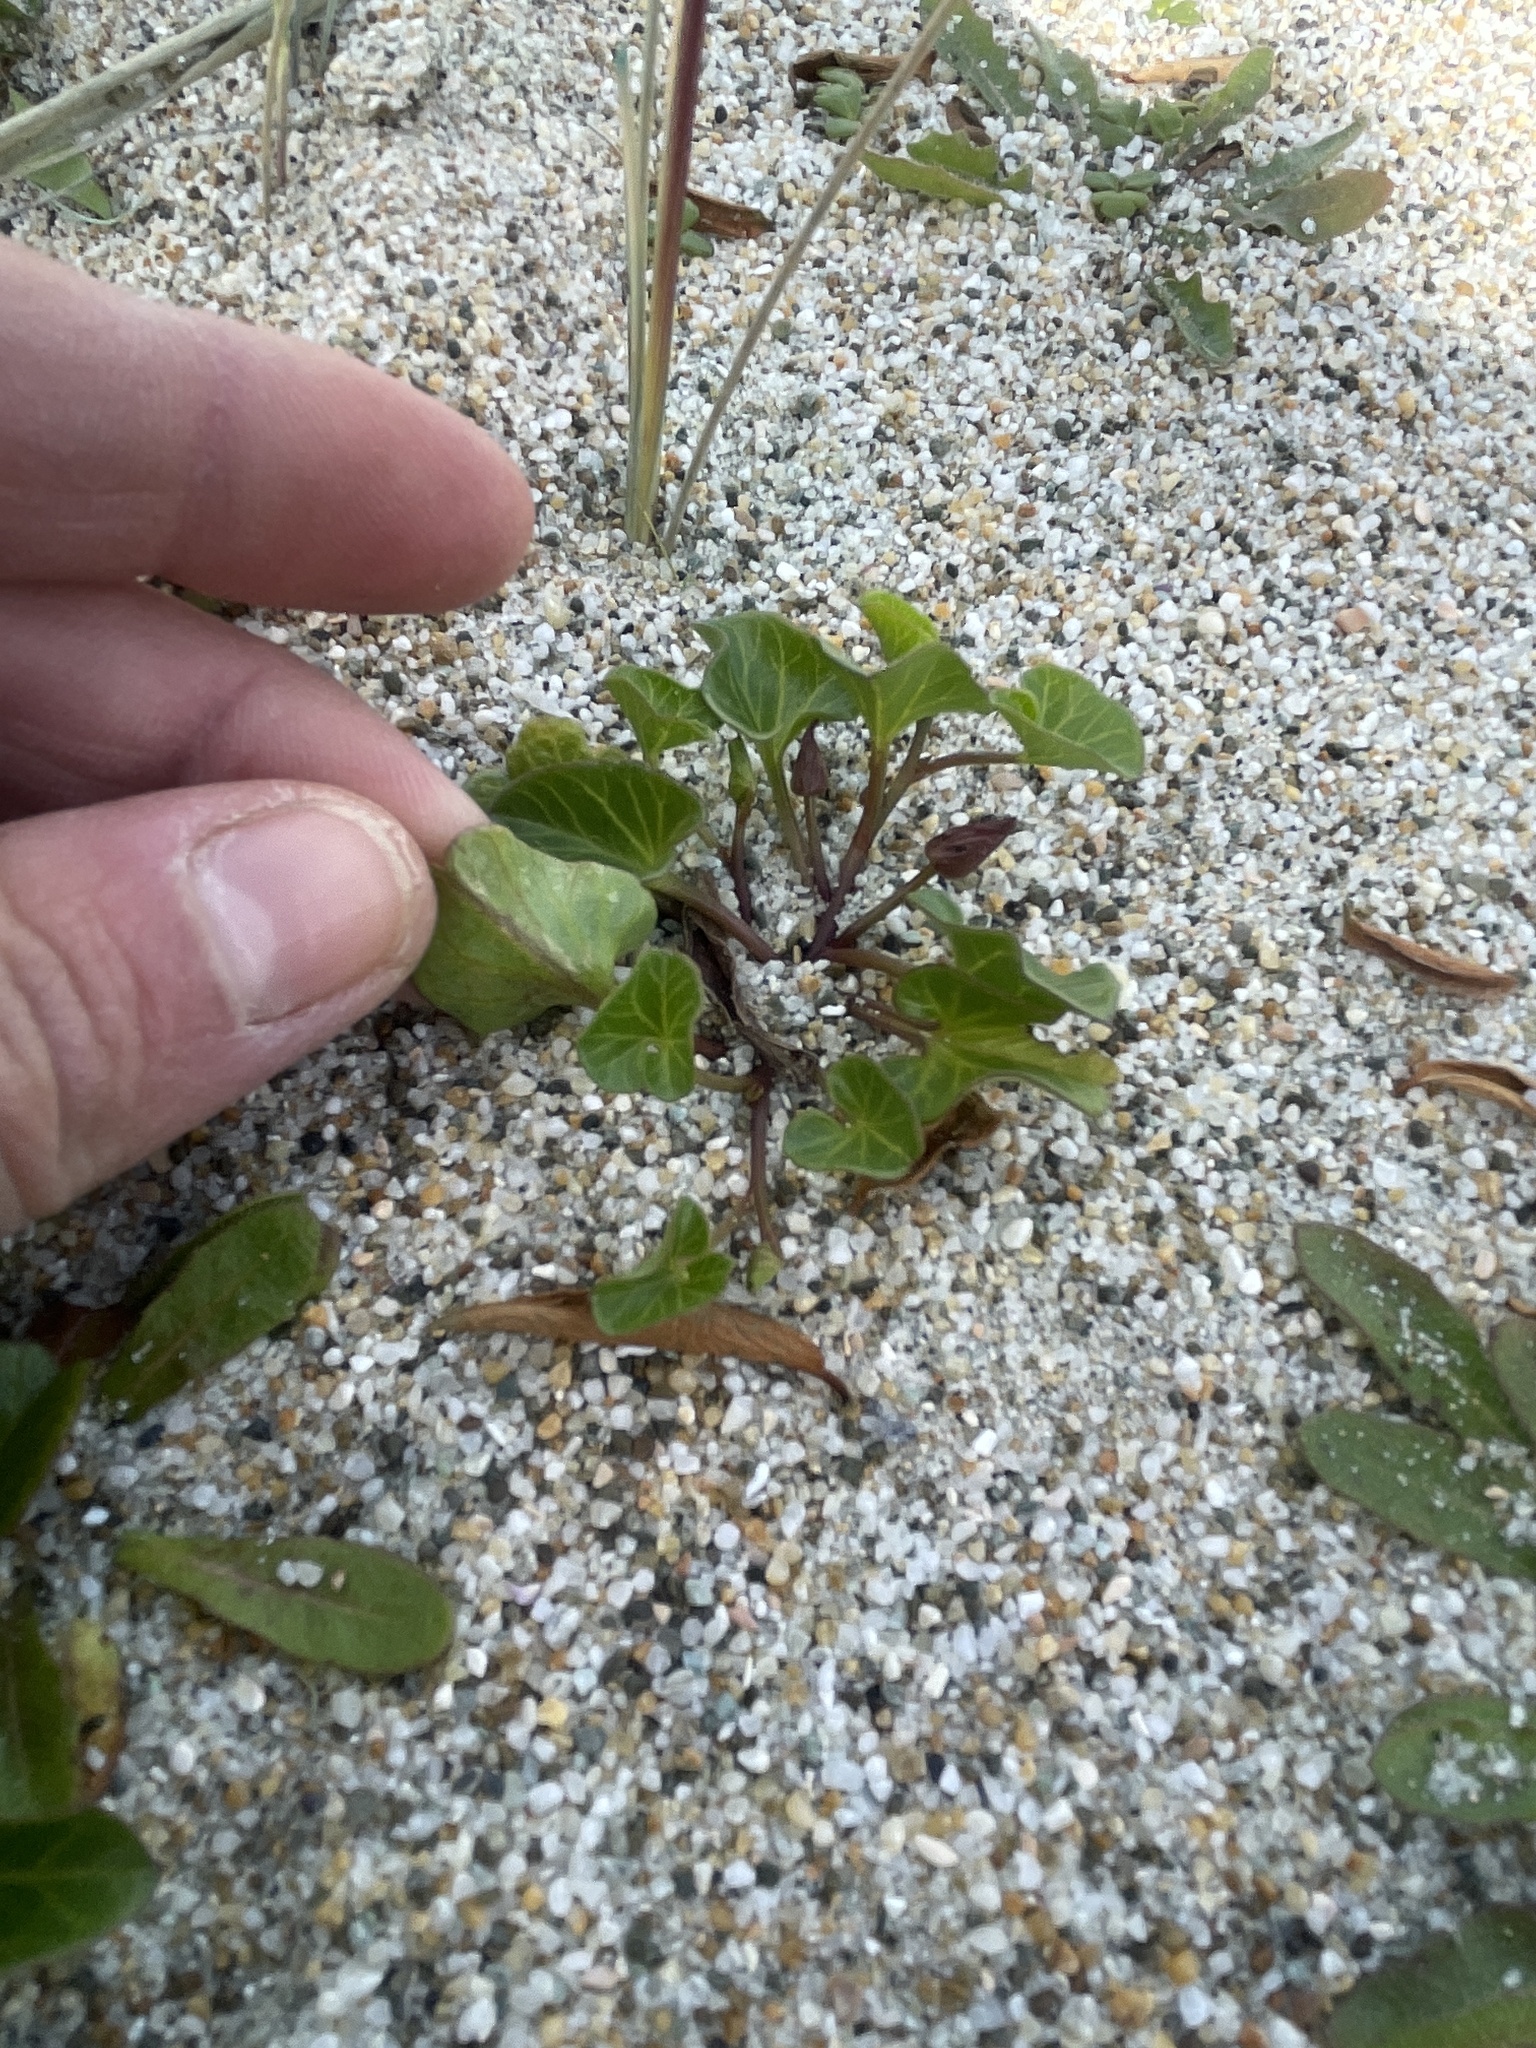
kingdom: Plantae
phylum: Tracheophyta
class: Magnoliopsida
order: Solanales
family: Convolvulaceae
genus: Calystegia
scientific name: Calystegia soldanella
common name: Sea bindweed
